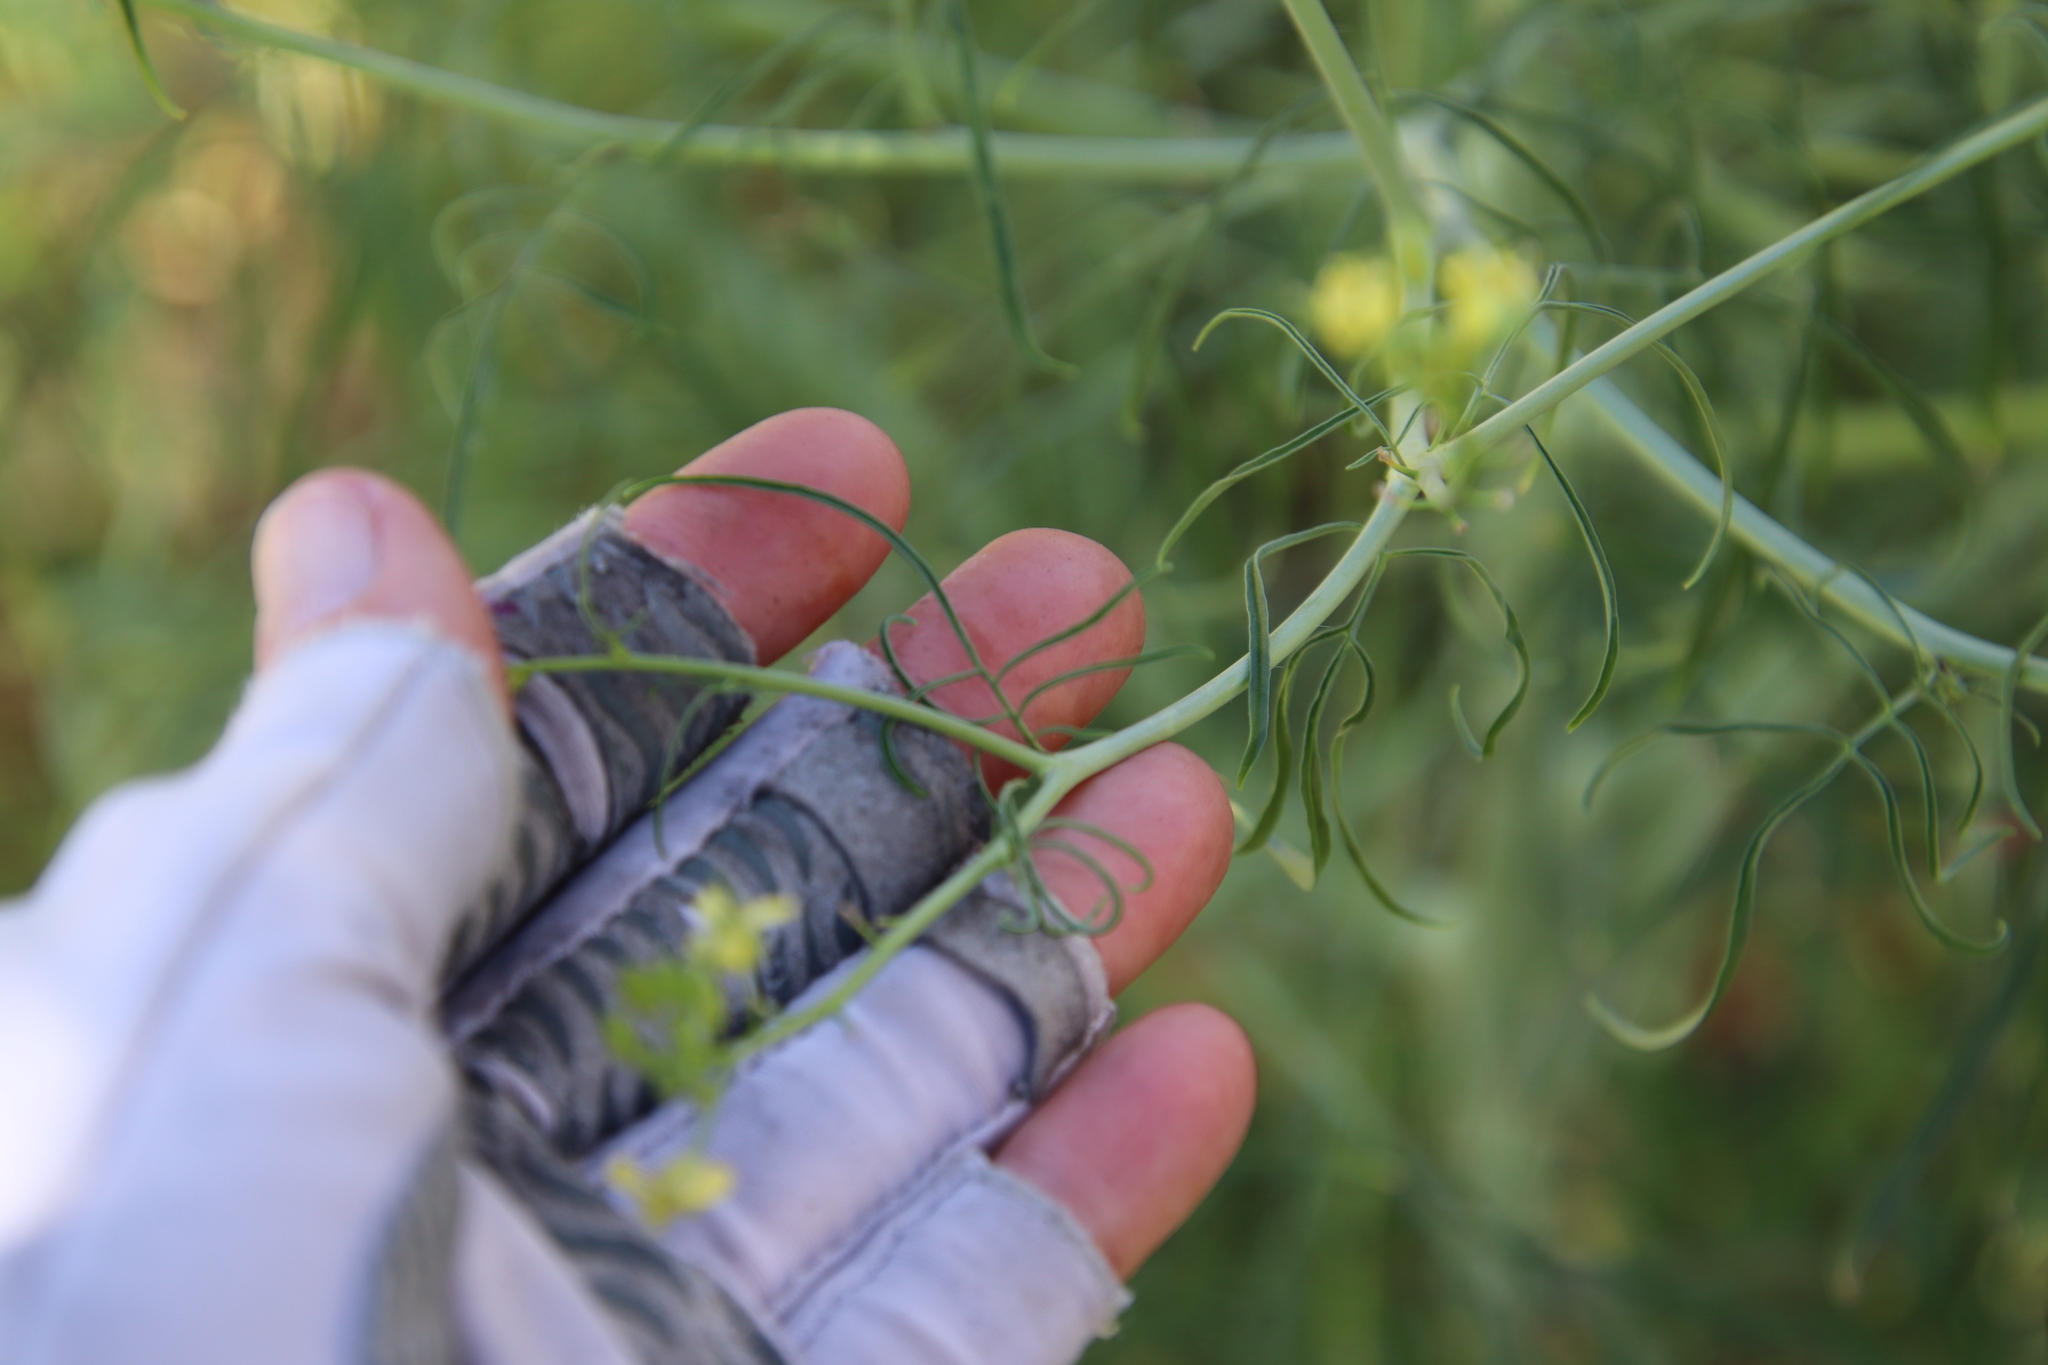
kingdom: Plantae
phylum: Tracheophyta
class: Magnoliopsida
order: Brassicales
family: Brassicaceae
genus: Sisymbrium
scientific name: Sisymbrium altissimum
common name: Tall rocket
